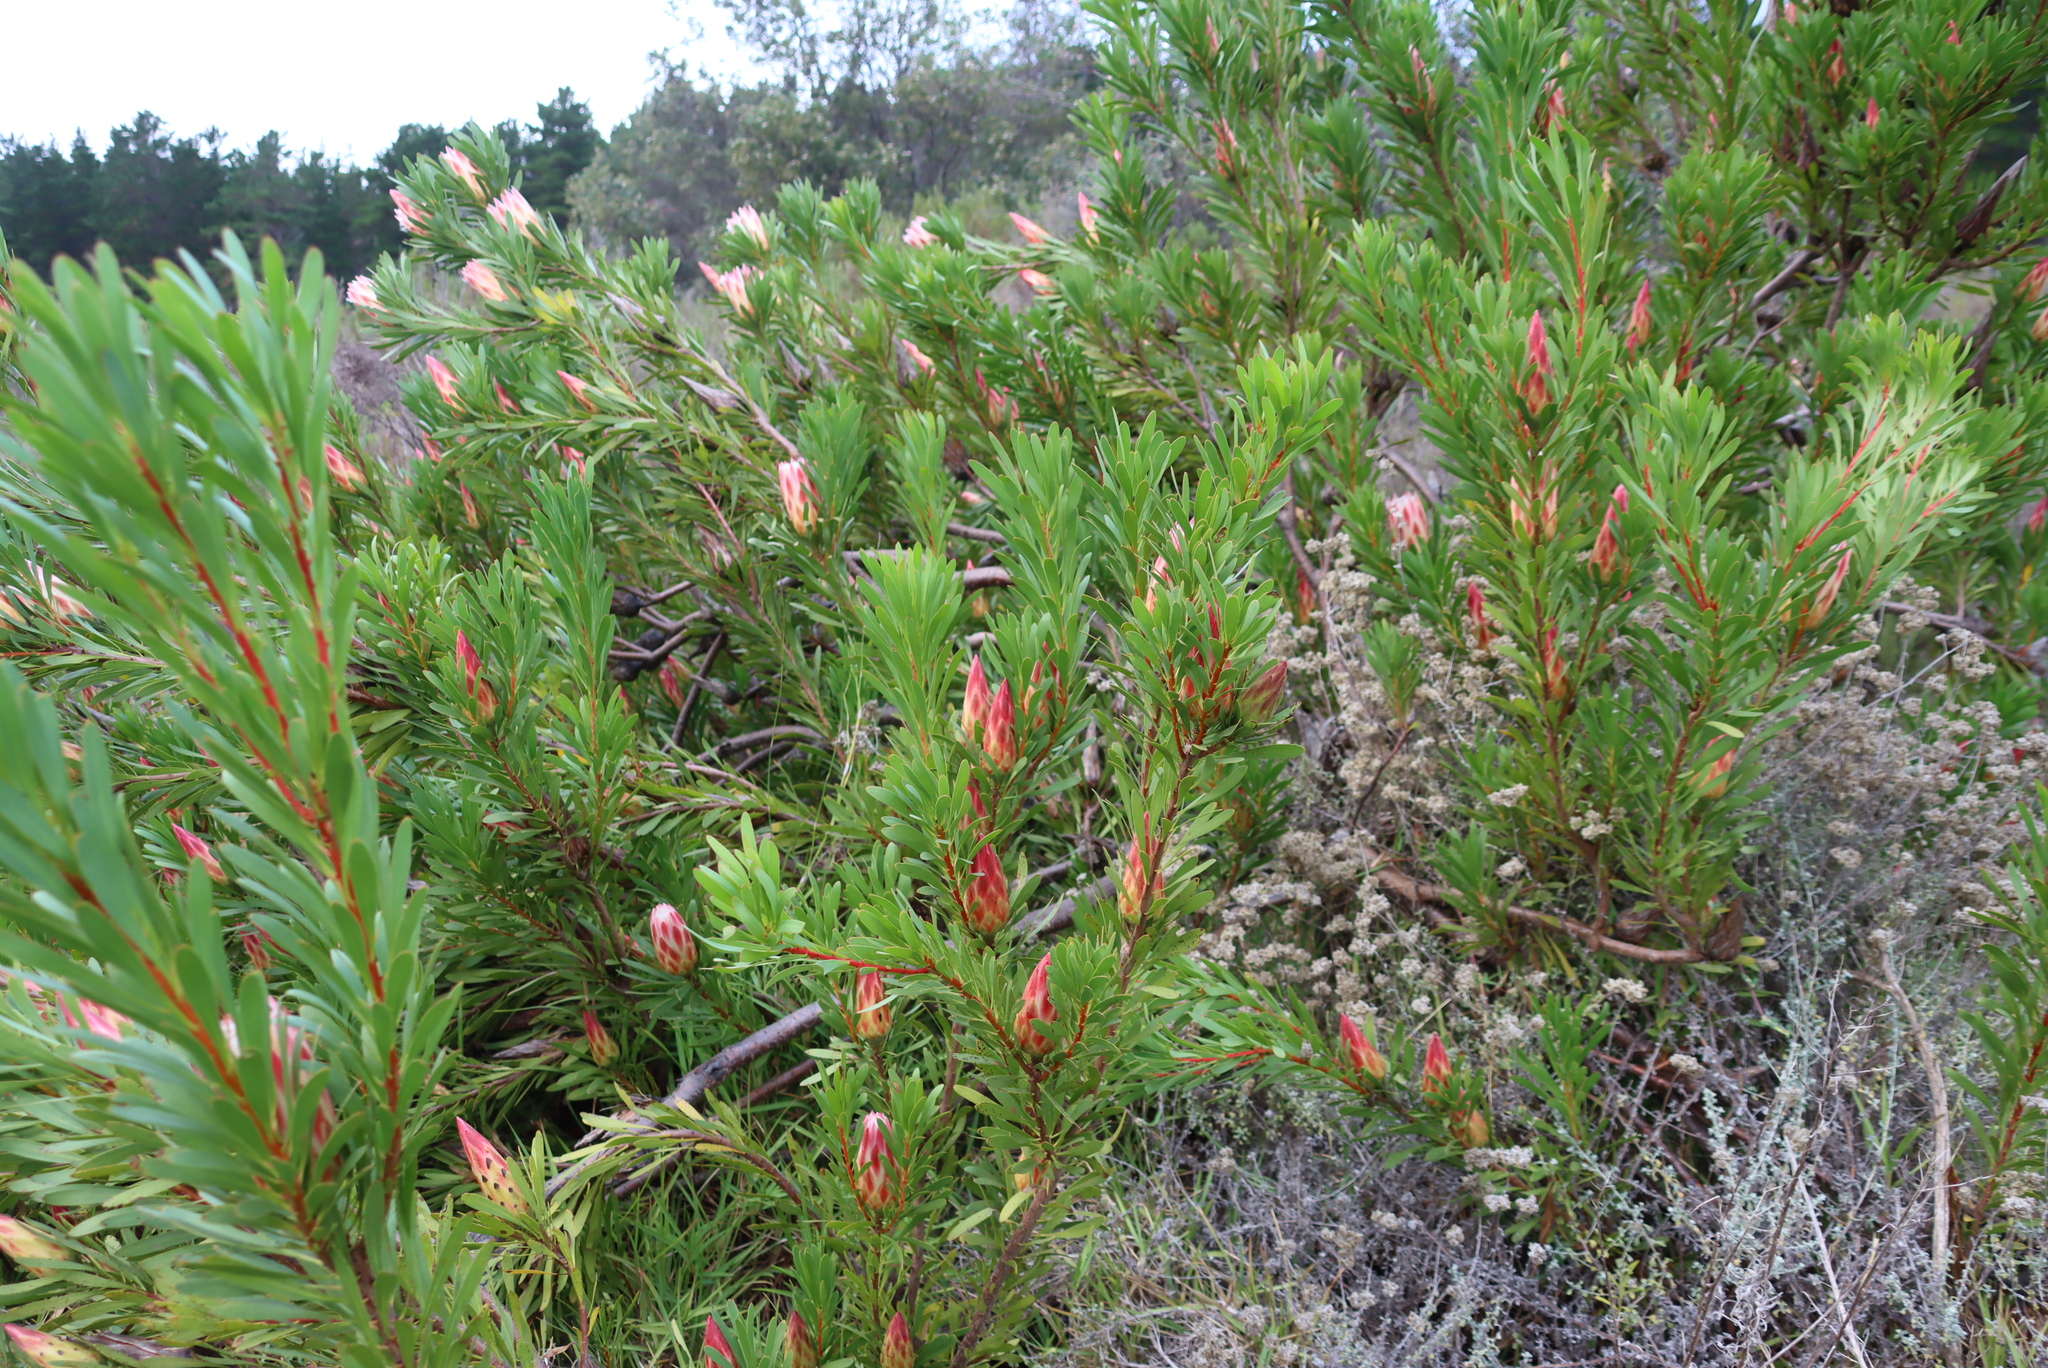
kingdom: Plantae
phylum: Tracheophyta
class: Magnoliopsida
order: Proteales
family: Proteaceae
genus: Protea
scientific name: Protea repens
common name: Sugarbush
